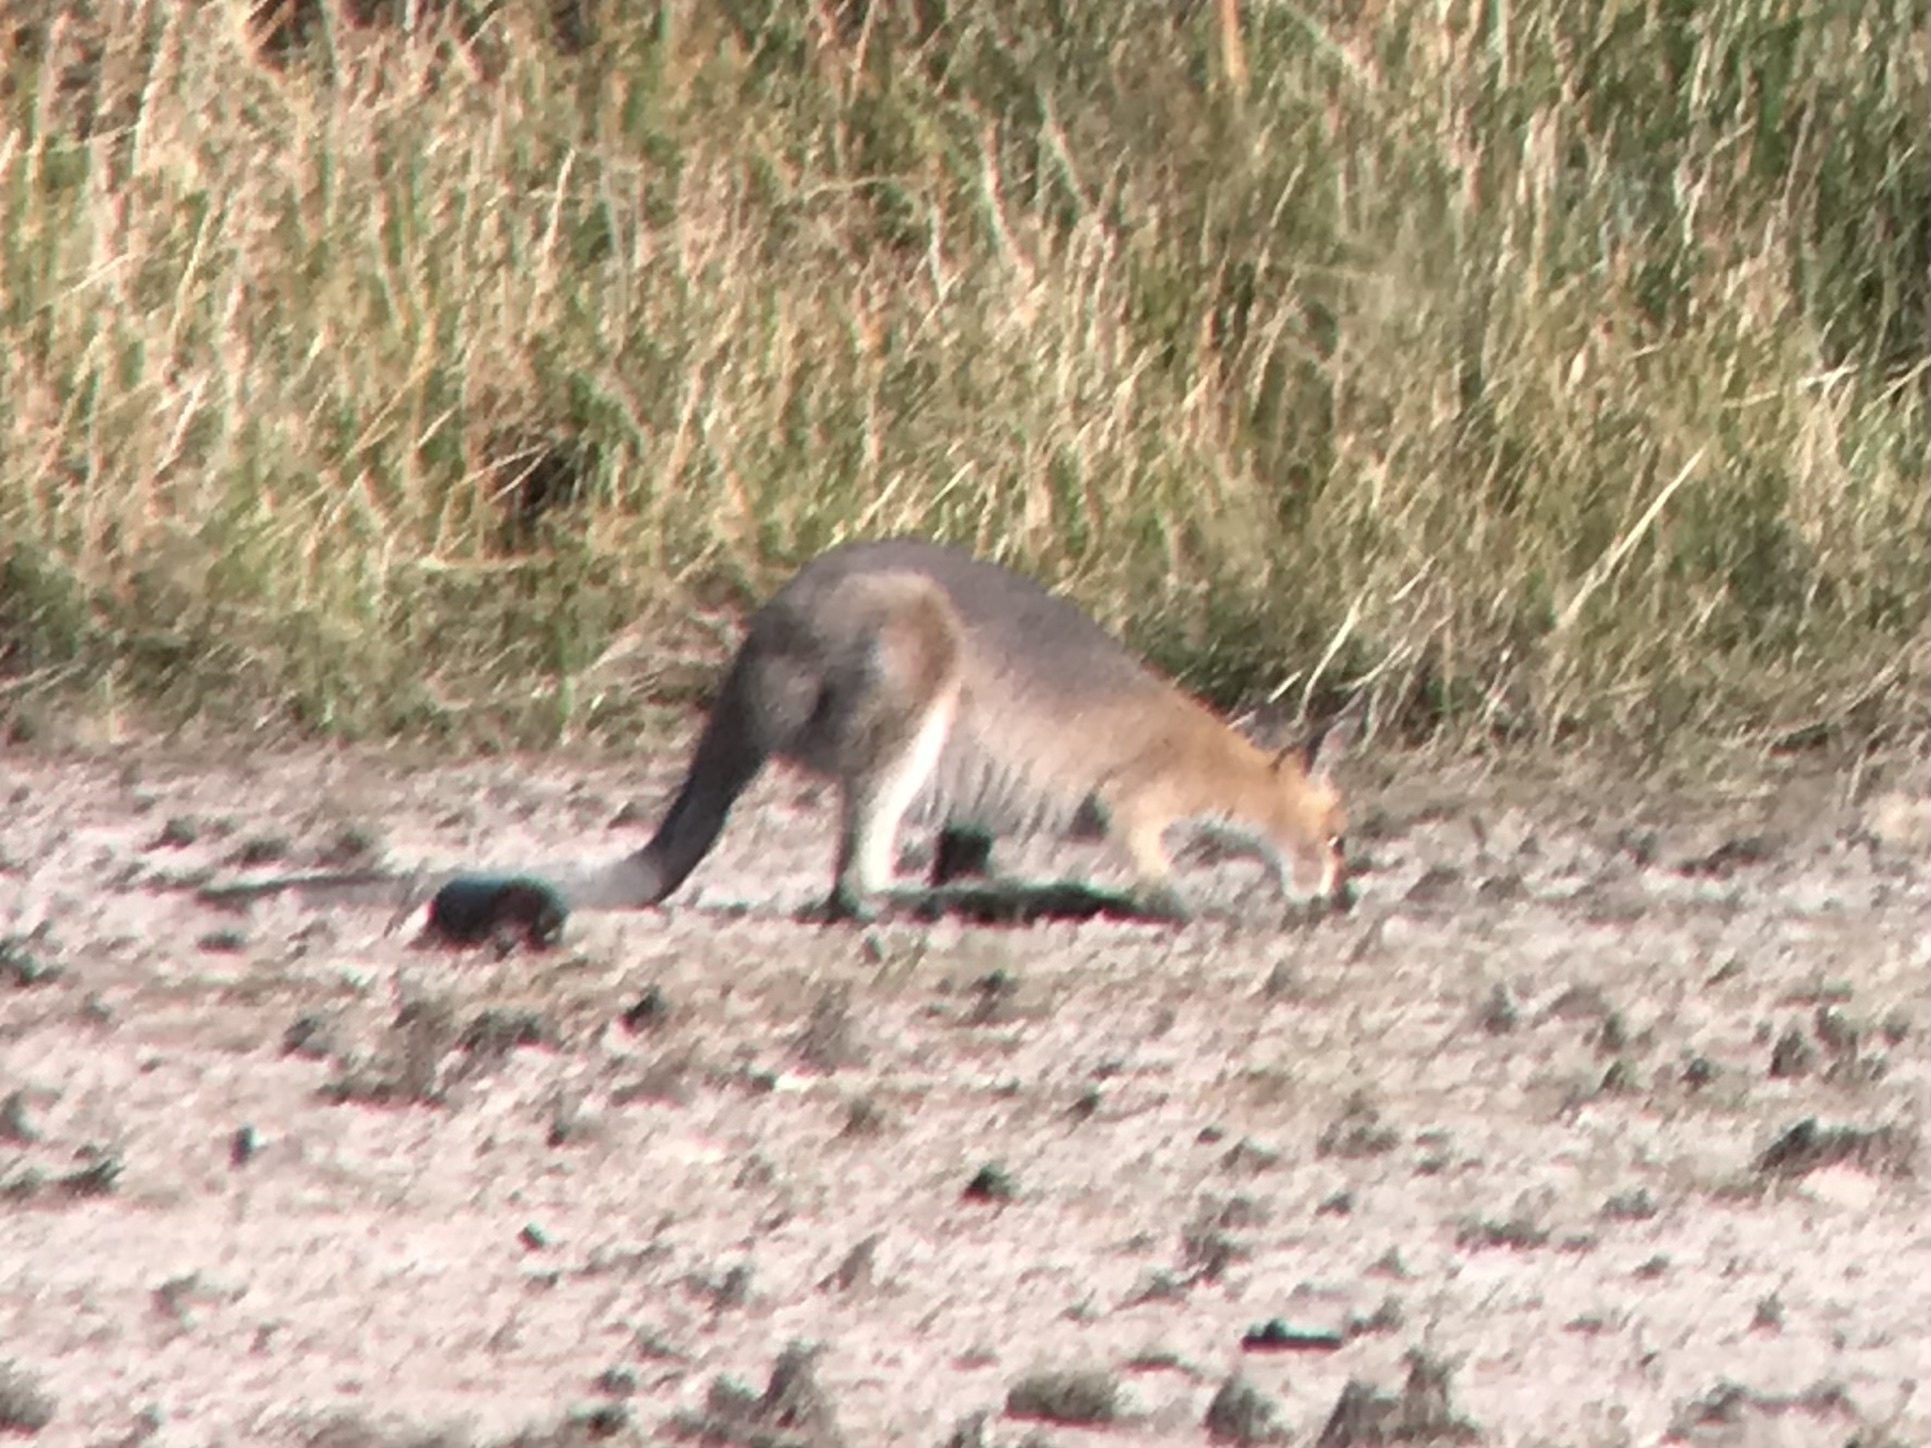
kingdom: Animalia
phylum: Chordata
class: Mammalia
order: Diprotodontia
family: Macropodidae
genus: Notamacropus
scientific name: Notamacropus rufogriseus
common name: Red-necked wallaby
